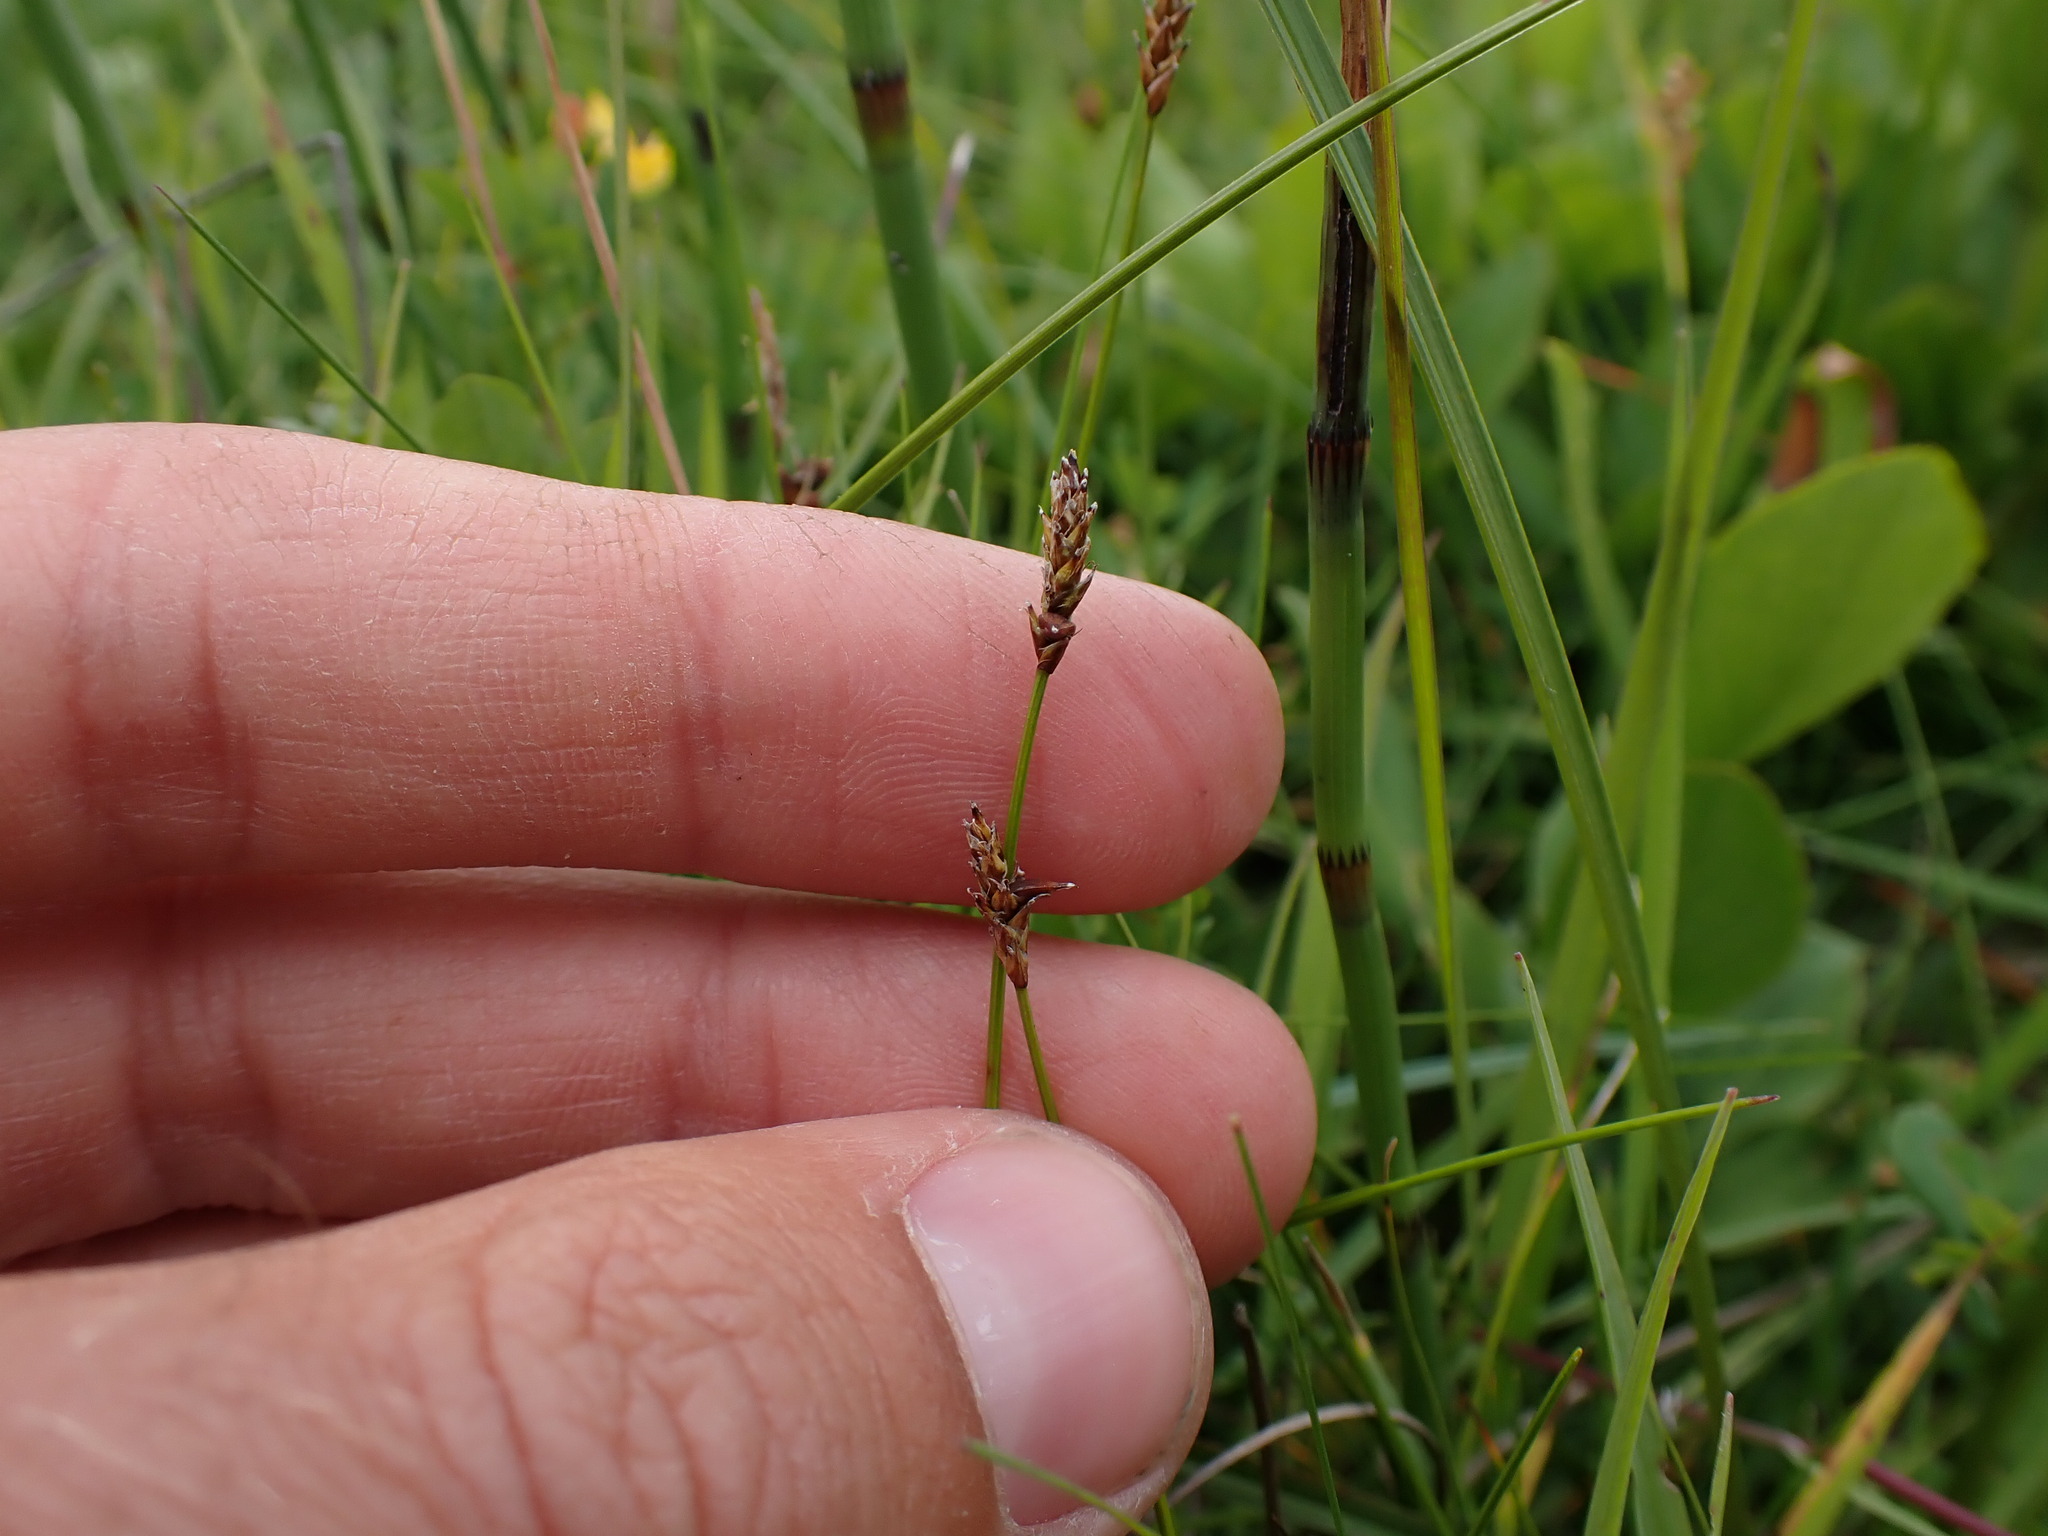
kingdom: Plantae
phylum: Tracheophyta
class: Liliopsida
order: Poales
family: Cyperaceae
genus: Carex
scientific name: Carex dioica
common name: Dioecious sedge
